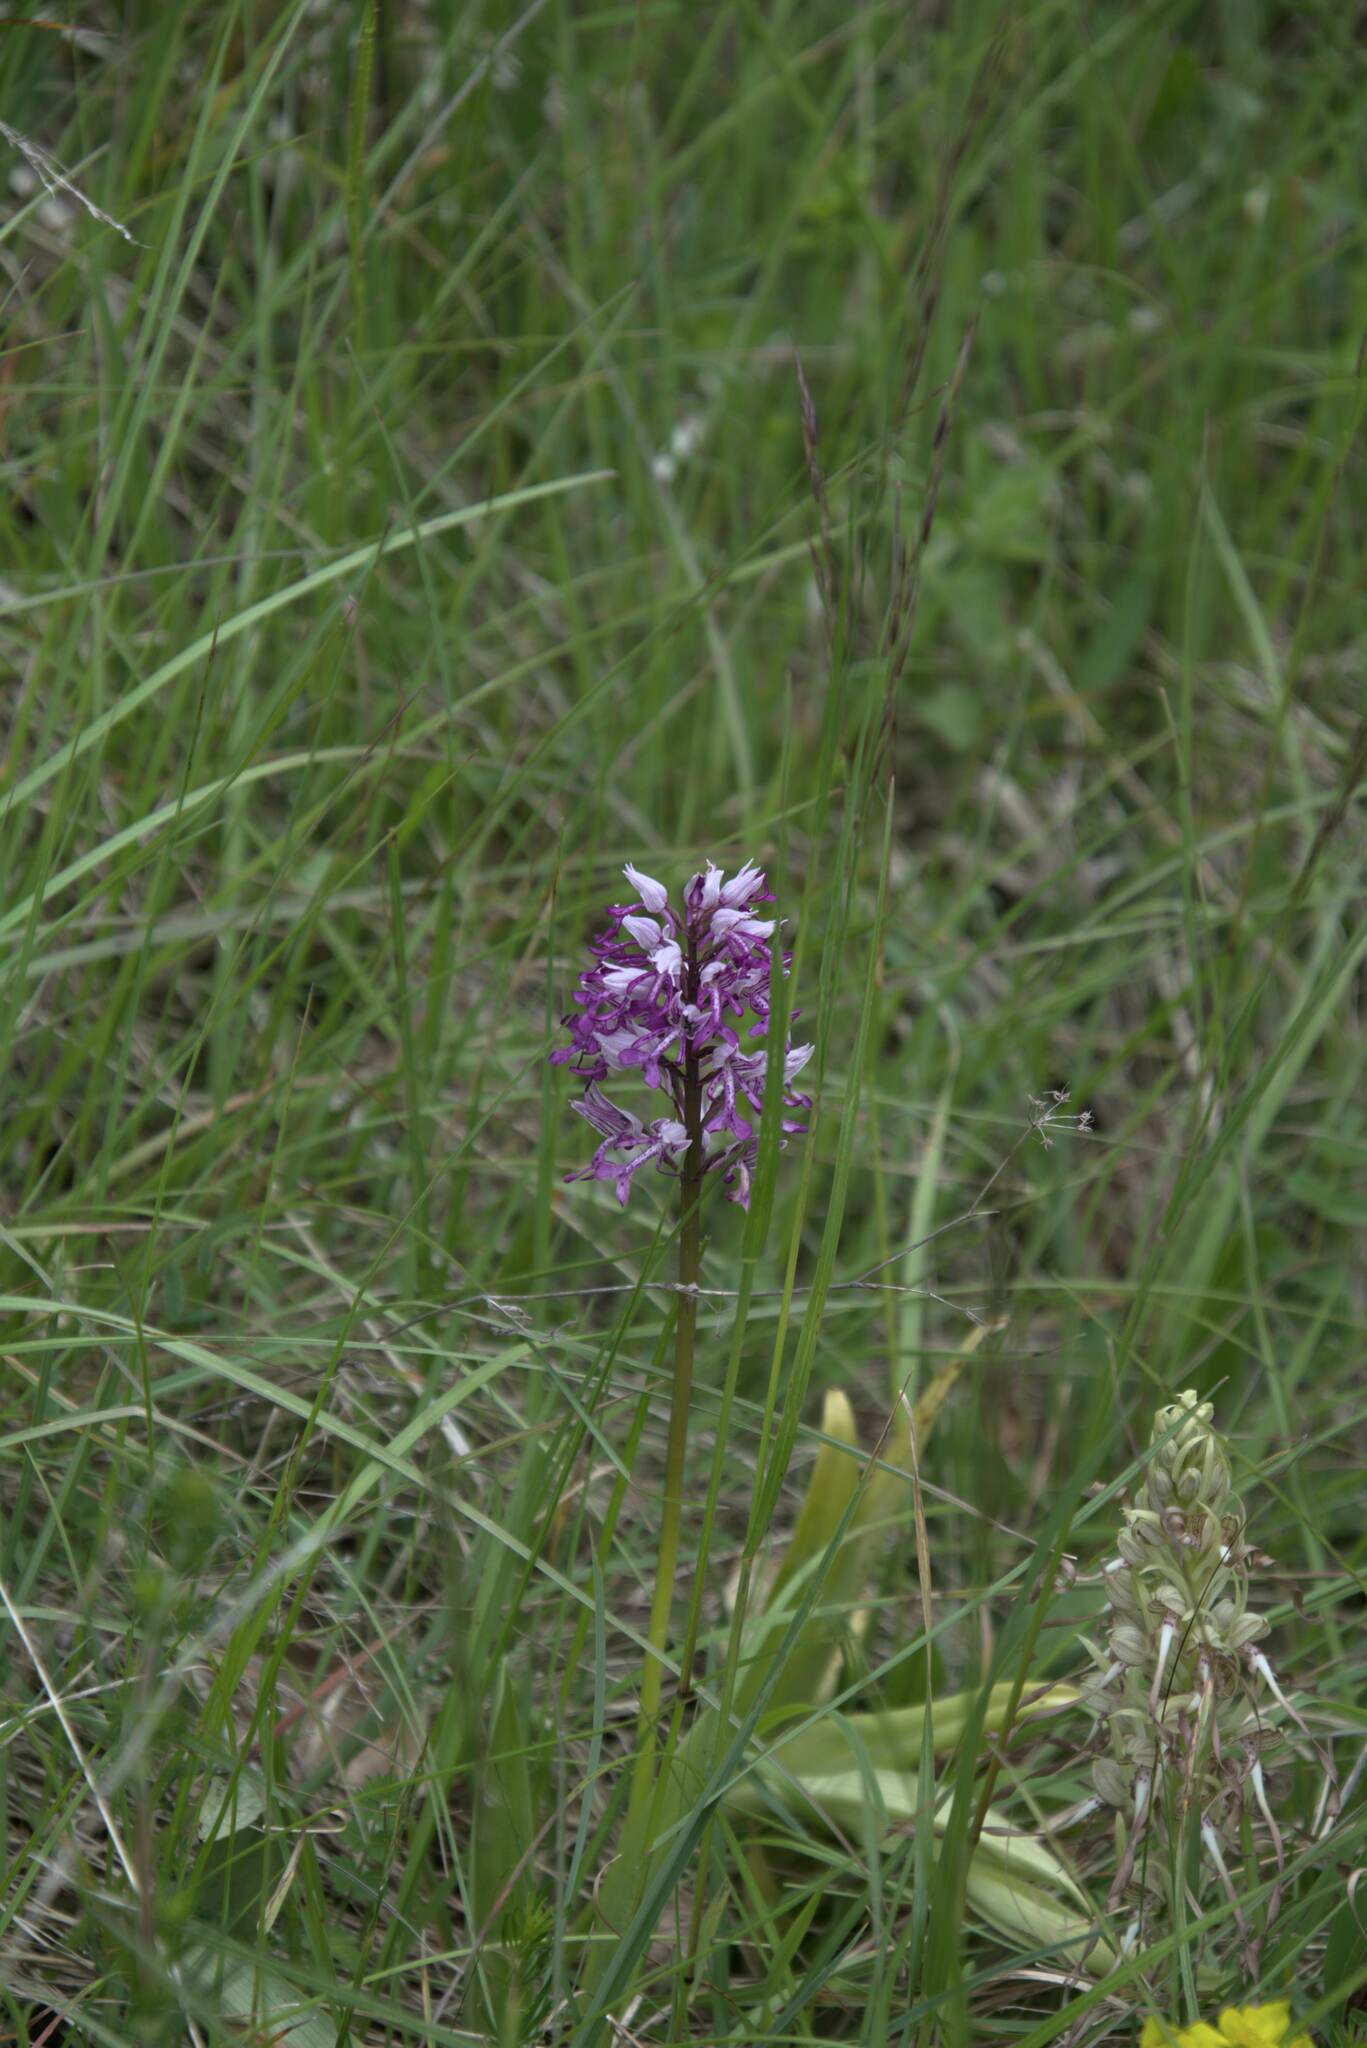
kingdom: Plantae
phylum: Tracheophyta
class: Liliopsida
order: Asparagales
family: Orchidaceae
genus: Orchis
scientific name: Orchis militaris
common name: Military orchid
